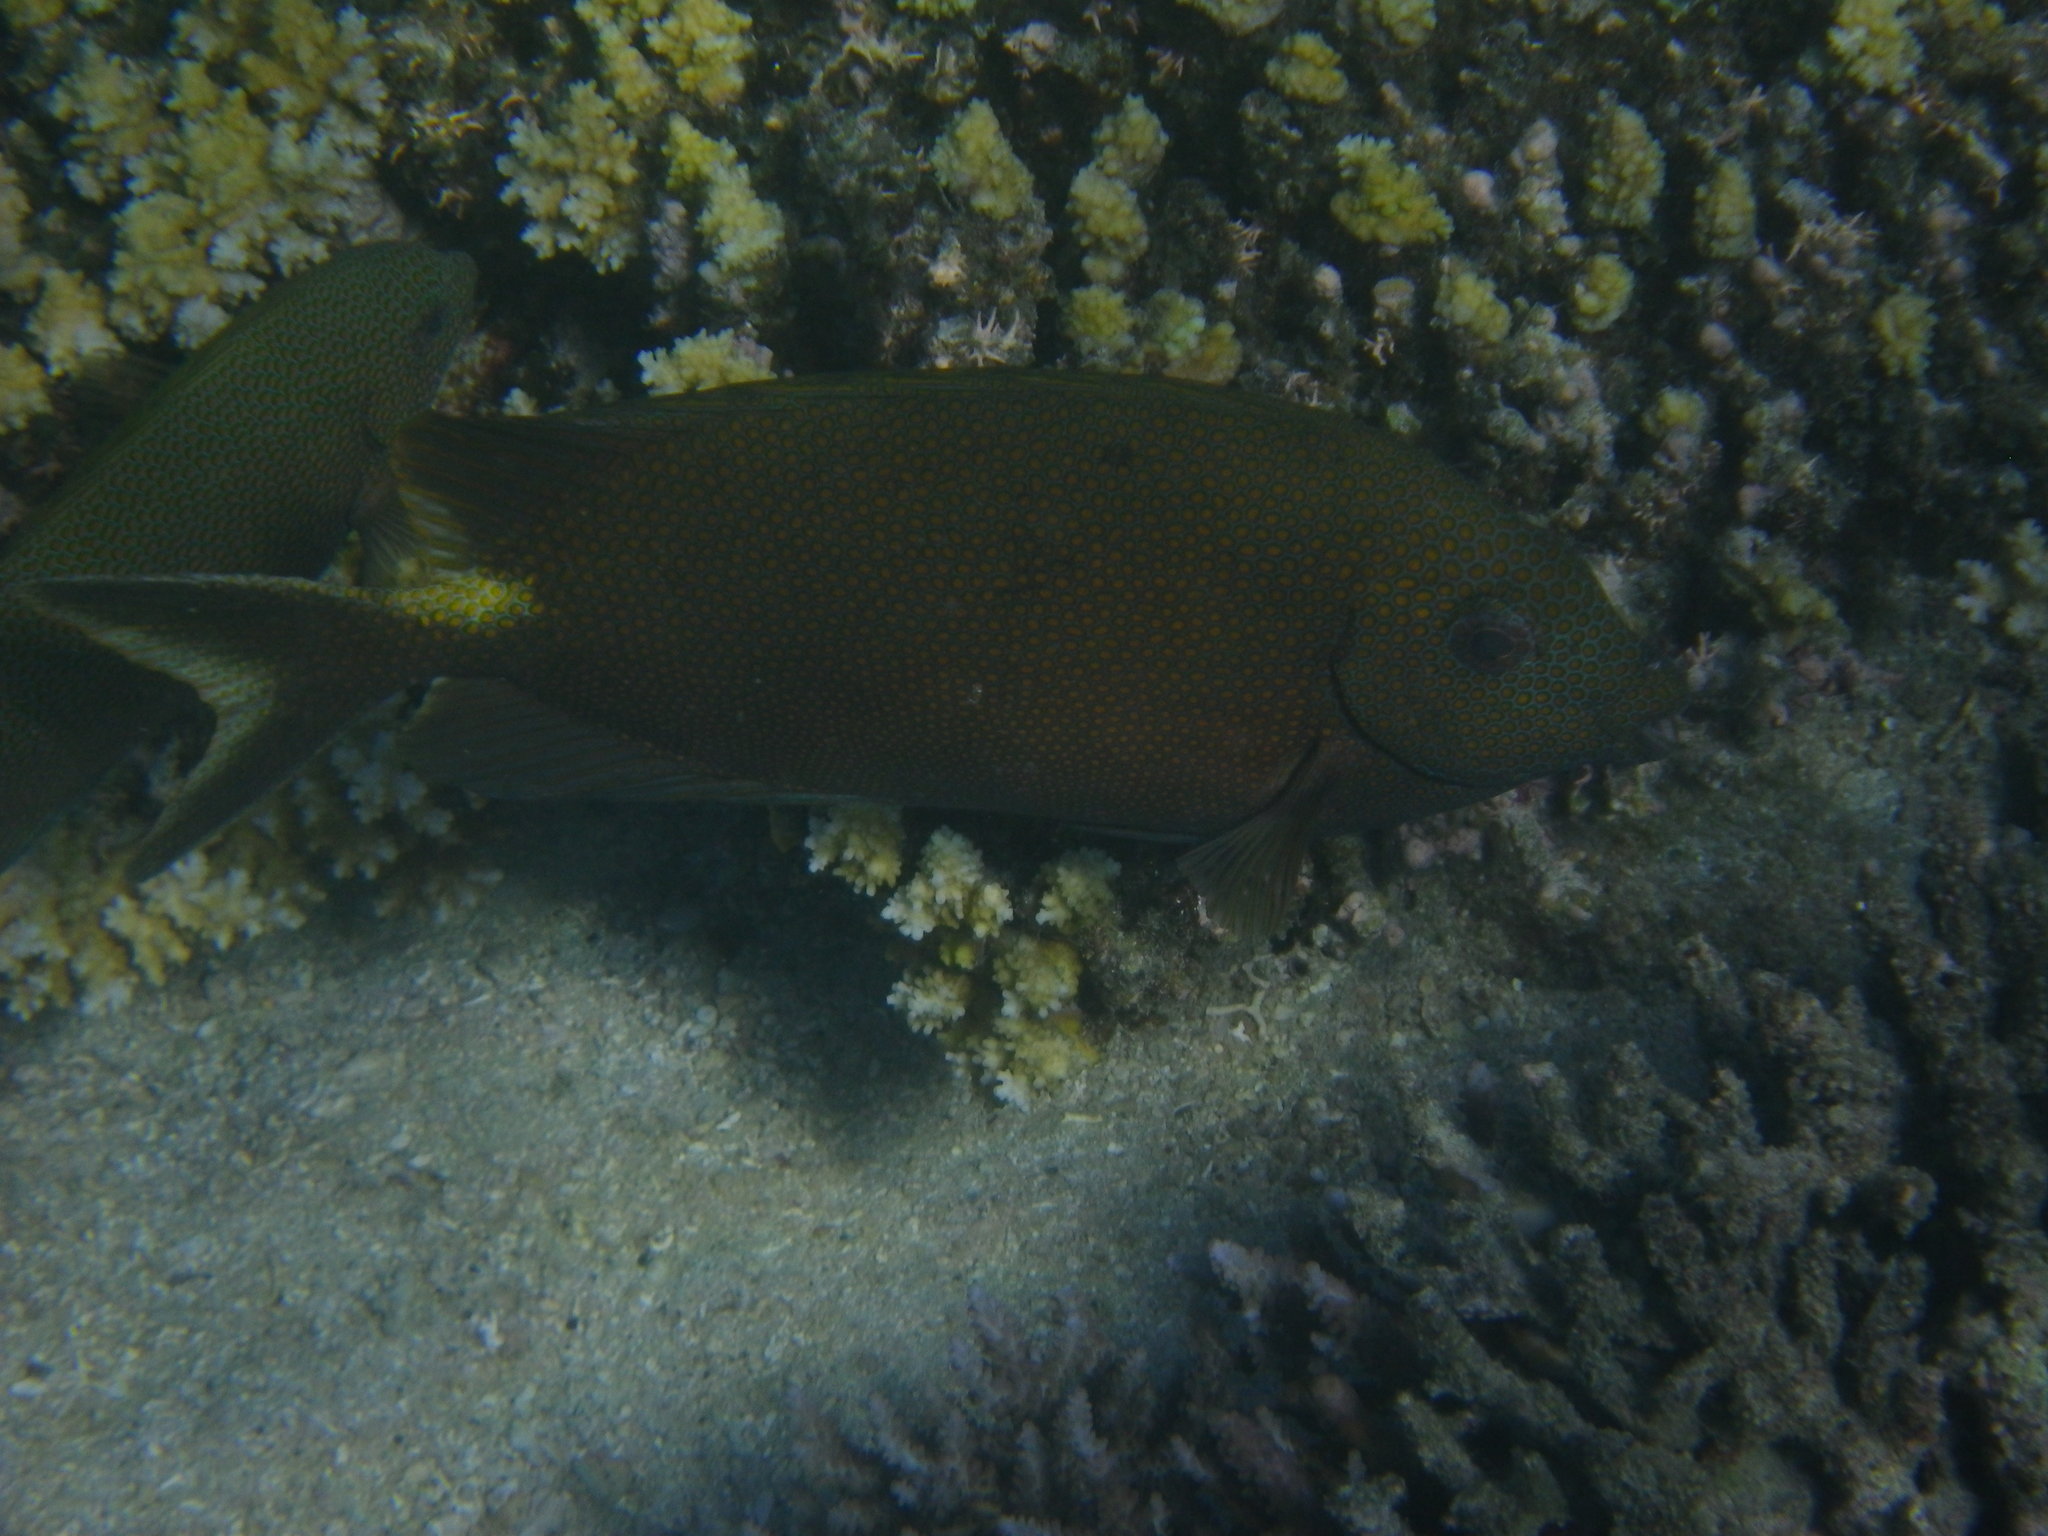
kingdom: Animalia
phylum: Chordata
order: Perciformes
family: Siganidae
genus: Siganus
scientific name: Siganus punctatus
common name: Gold-spotted rabbitfish
